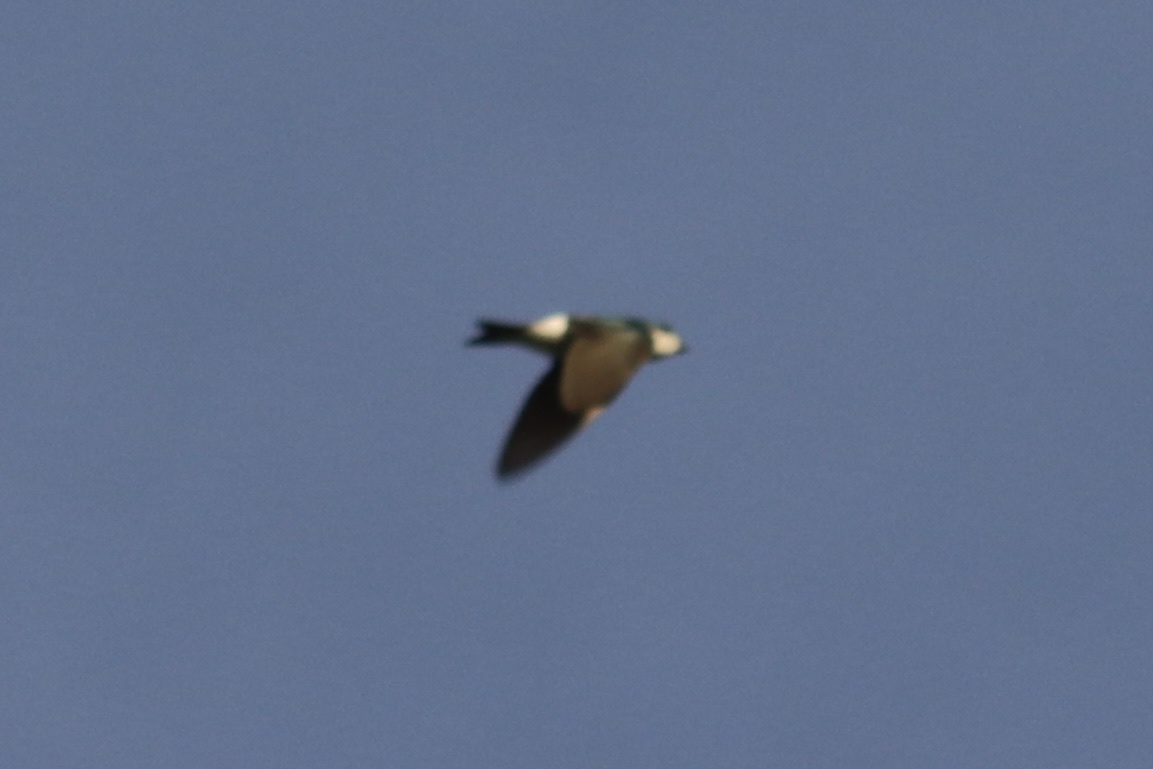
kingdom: Animalia
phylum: Chordata
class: Aves
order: Passeriformes
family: Hirundinidae
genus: Tachycineta
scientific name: Tachycineta bicolor
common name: Tree swallow
